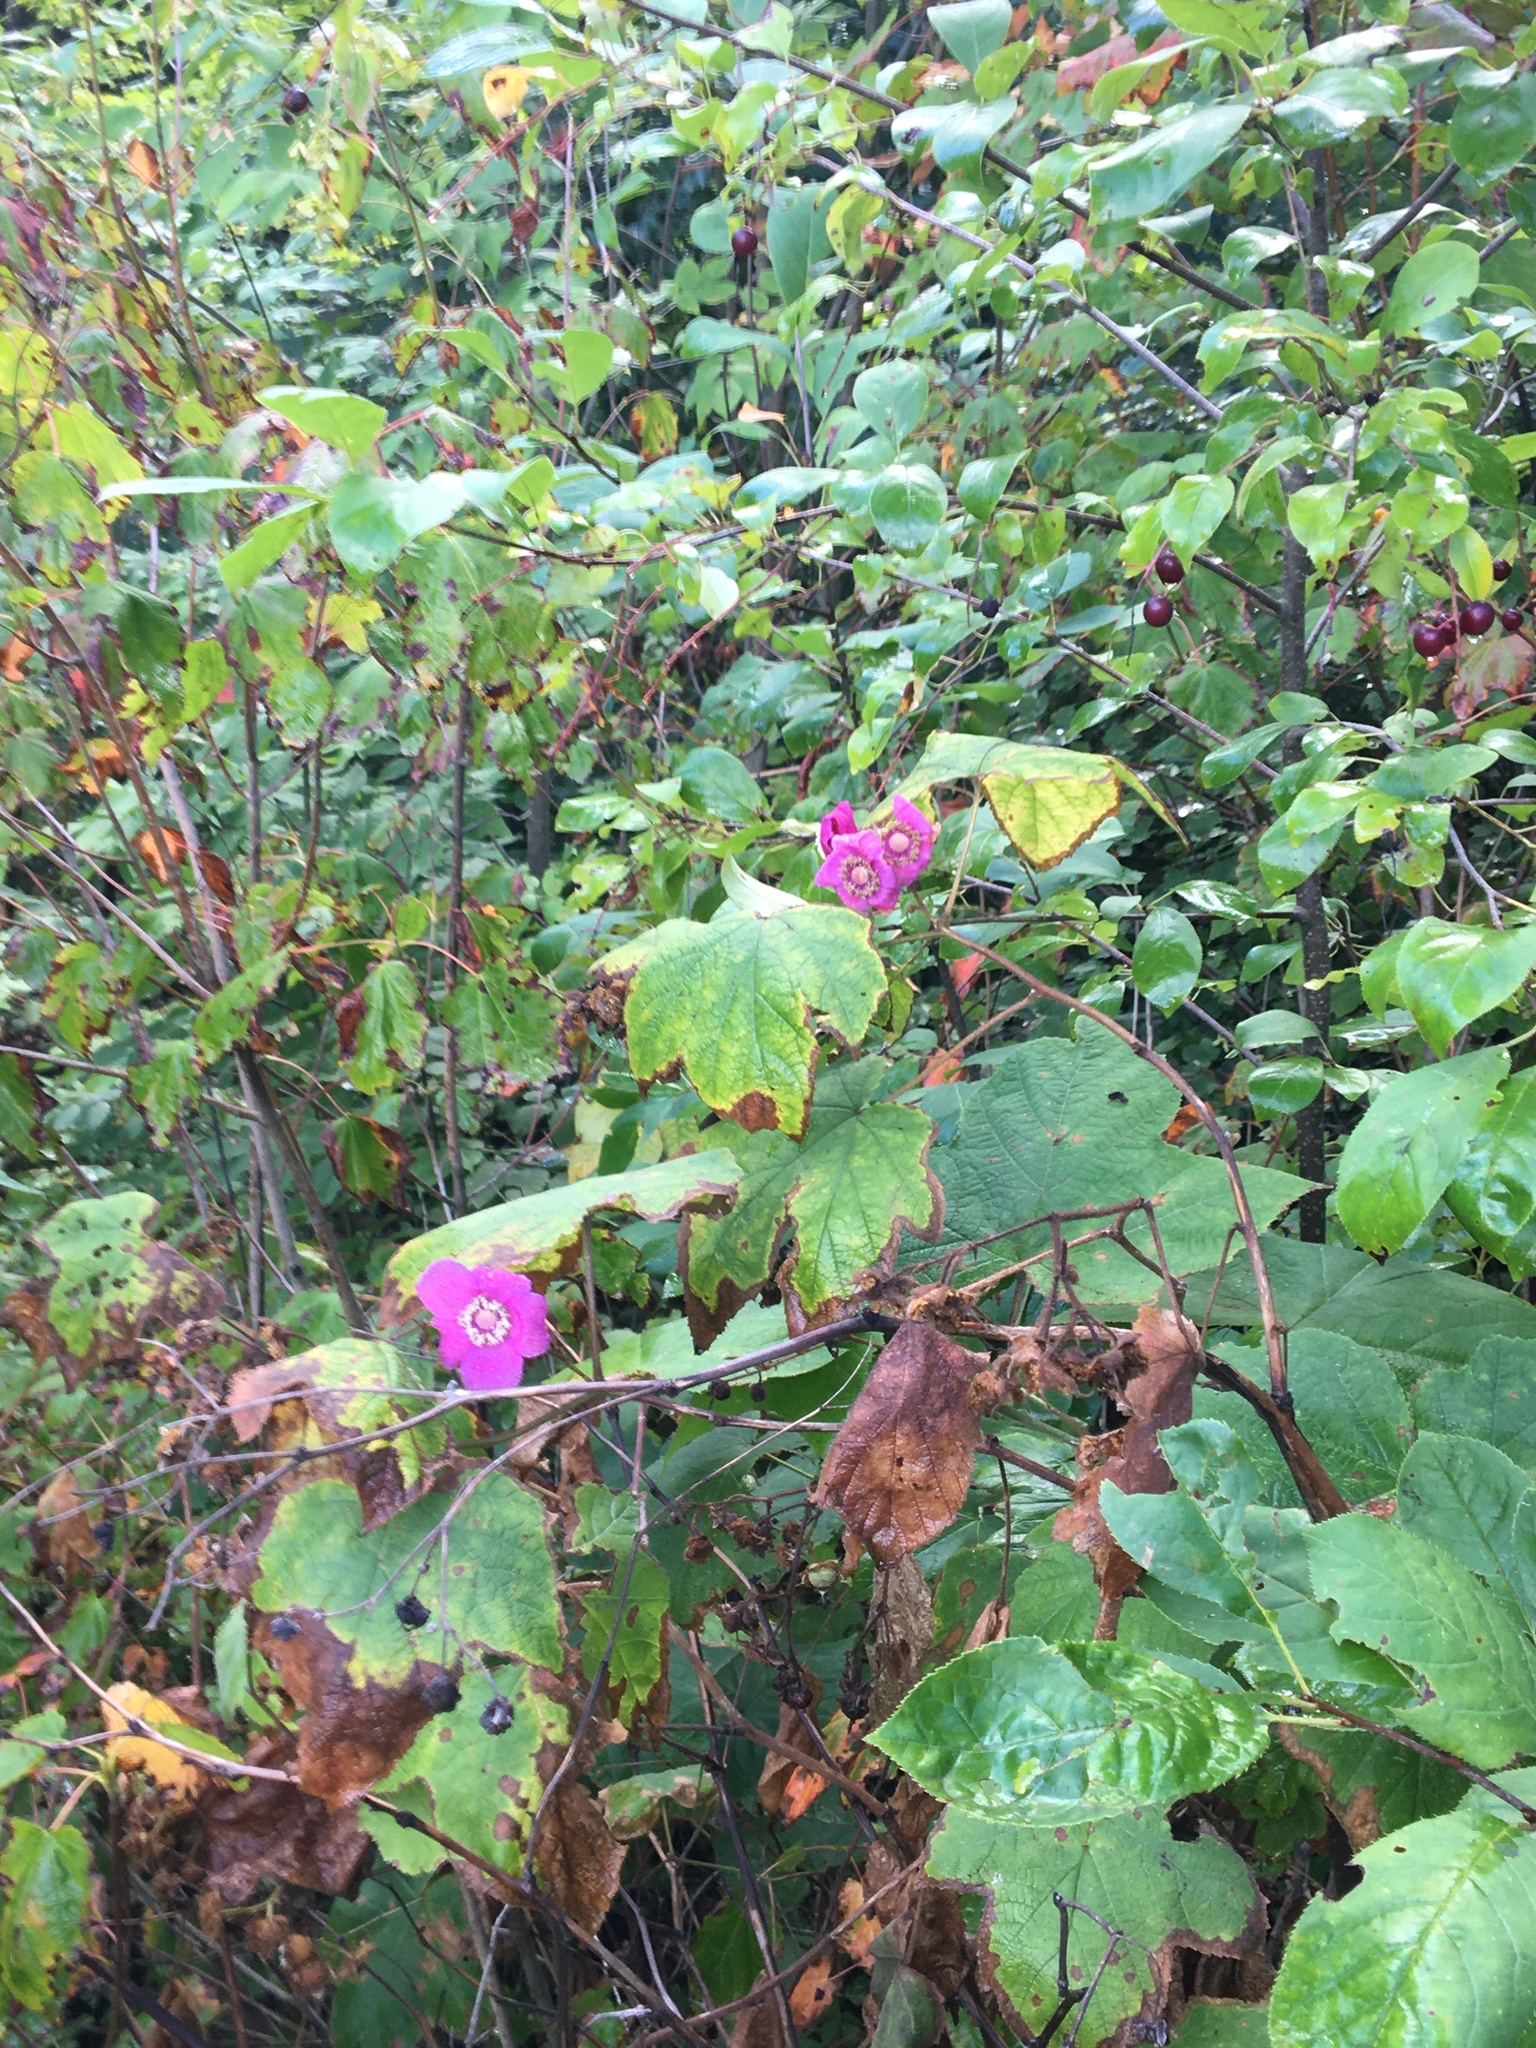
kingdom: Plantae
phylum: Tracheophyta
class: Magnoliopsida
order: Rosales
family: Rosaceae
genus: Rubus
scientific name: Rubus odoratus
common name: Purple-flowered raspberry
